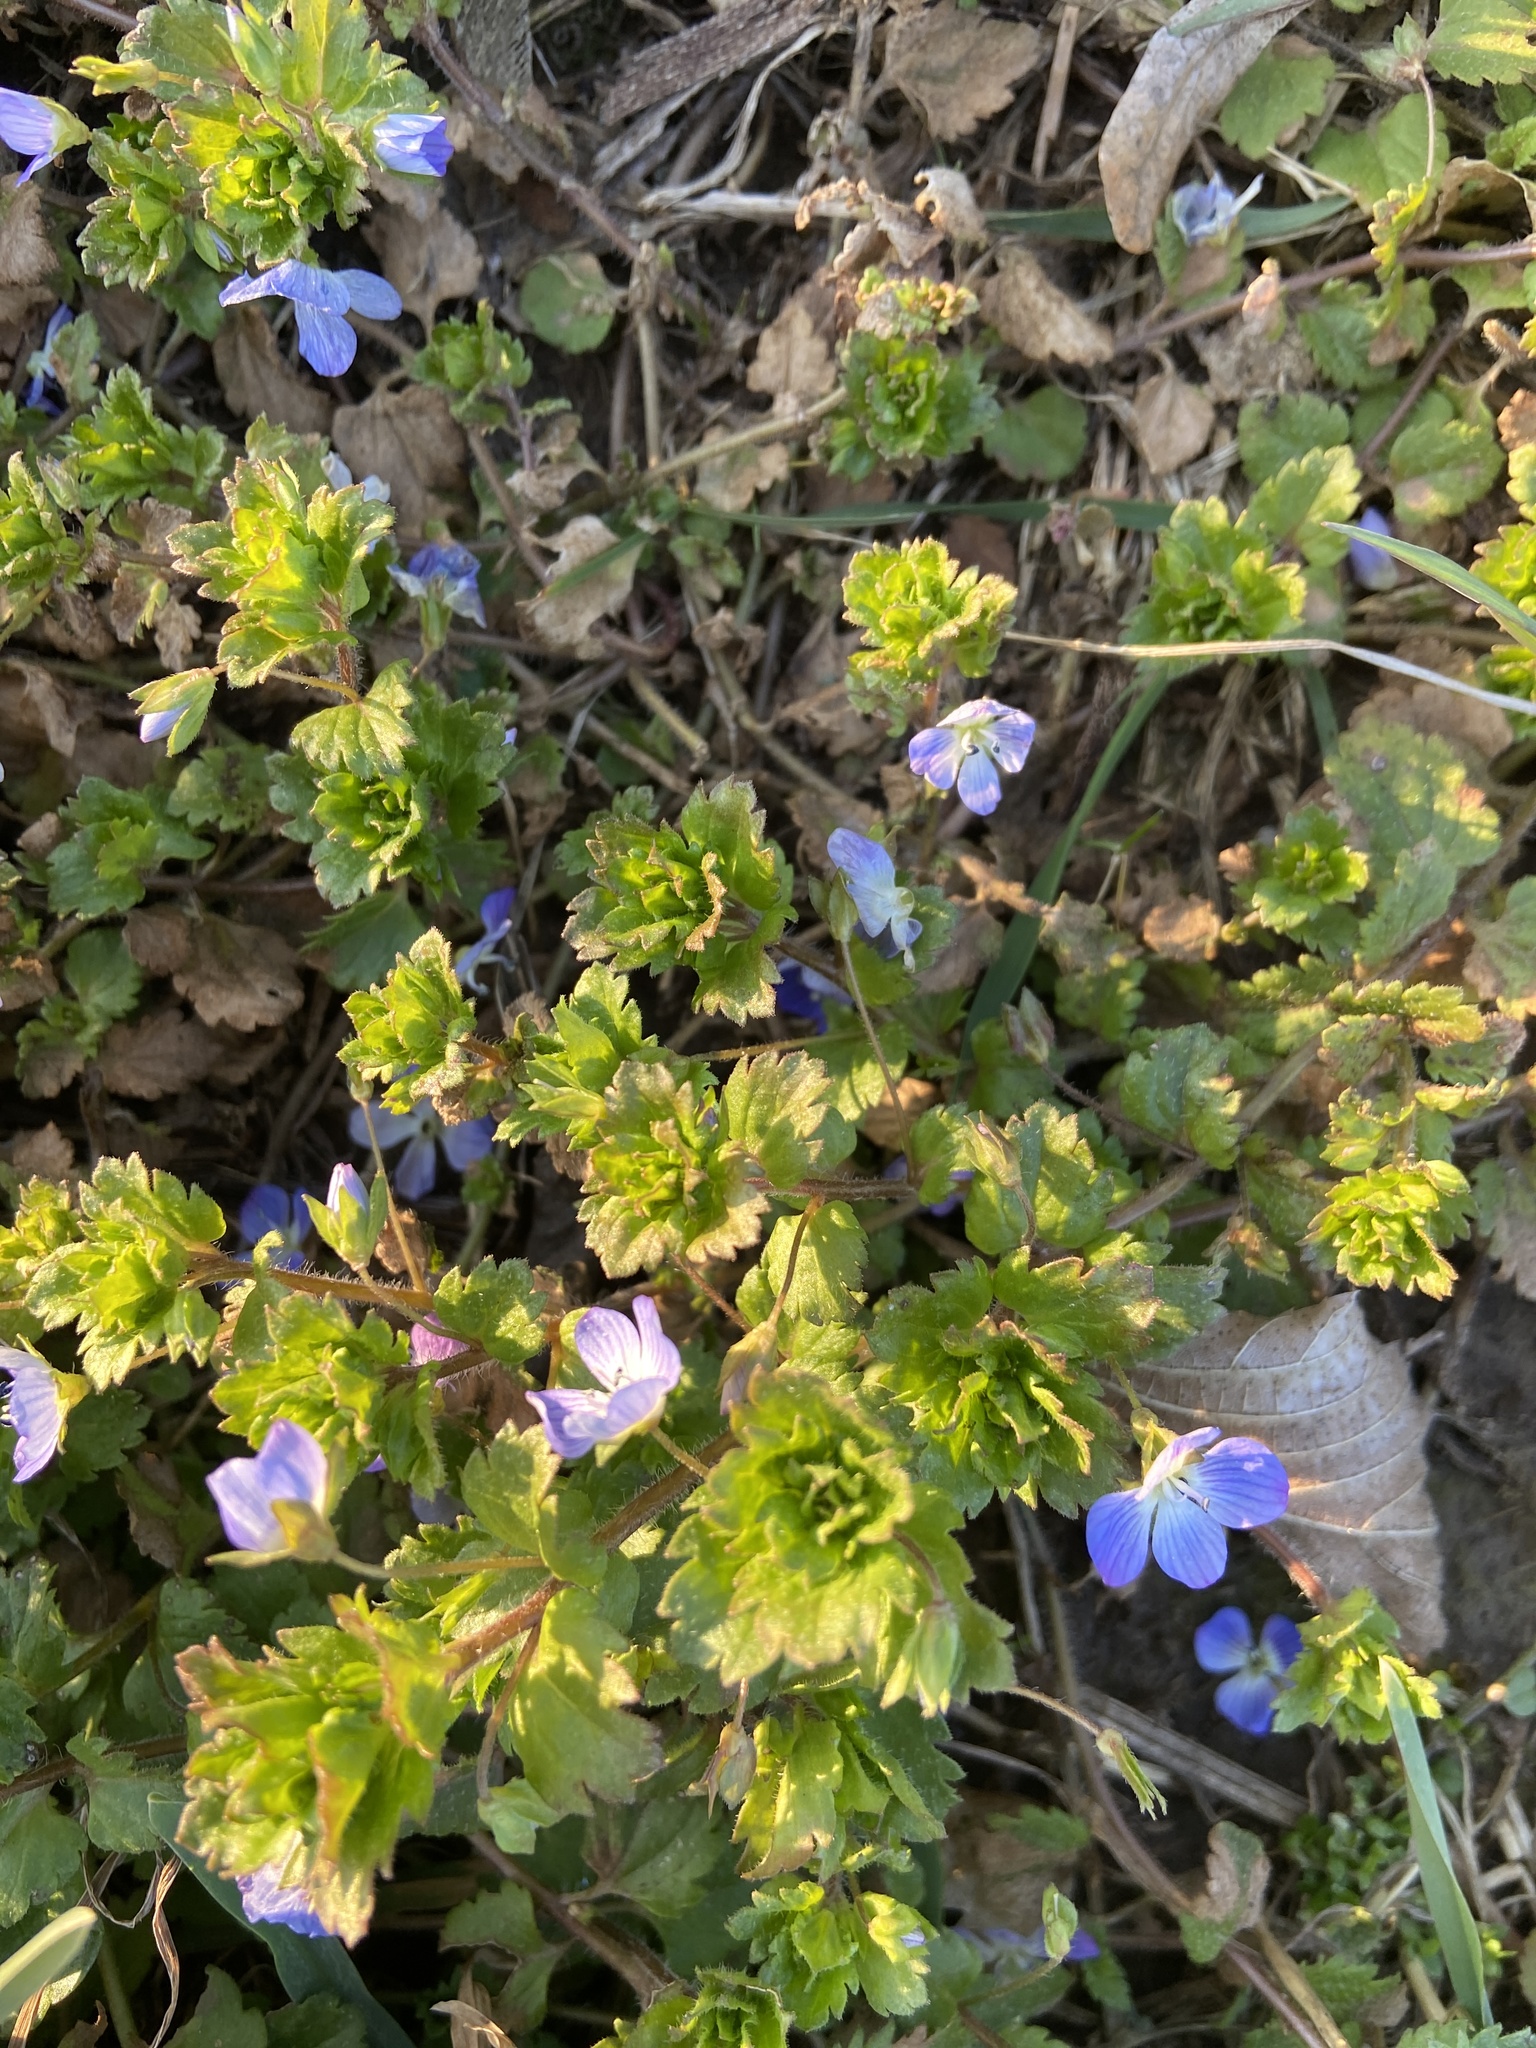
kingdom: Plantae
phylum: Tracheophyta
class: Magnoliopsida
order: Lamiales
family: Plantaginaceae
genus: Veronica
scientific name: Veronica persica
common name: Common field-speedwell
